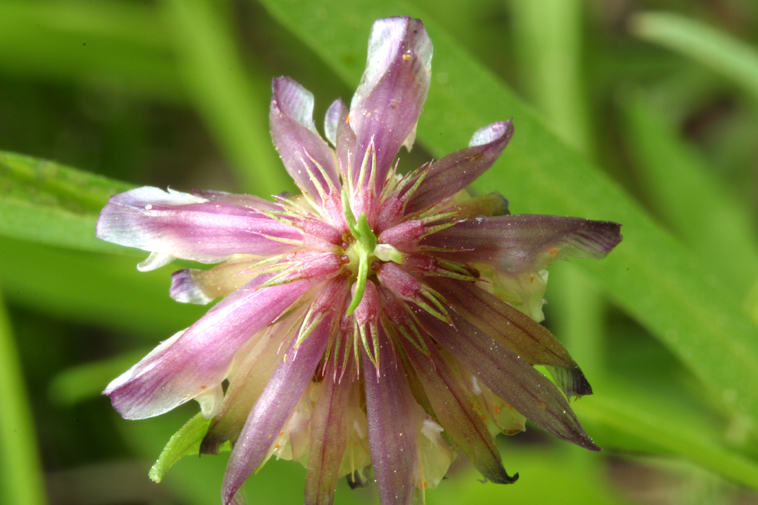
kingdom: Plantae
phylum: Tracheophyta
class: Magnoliopsida
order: Fabales
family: Fabaceae
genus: Trifolium
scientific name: Trifolium productum
